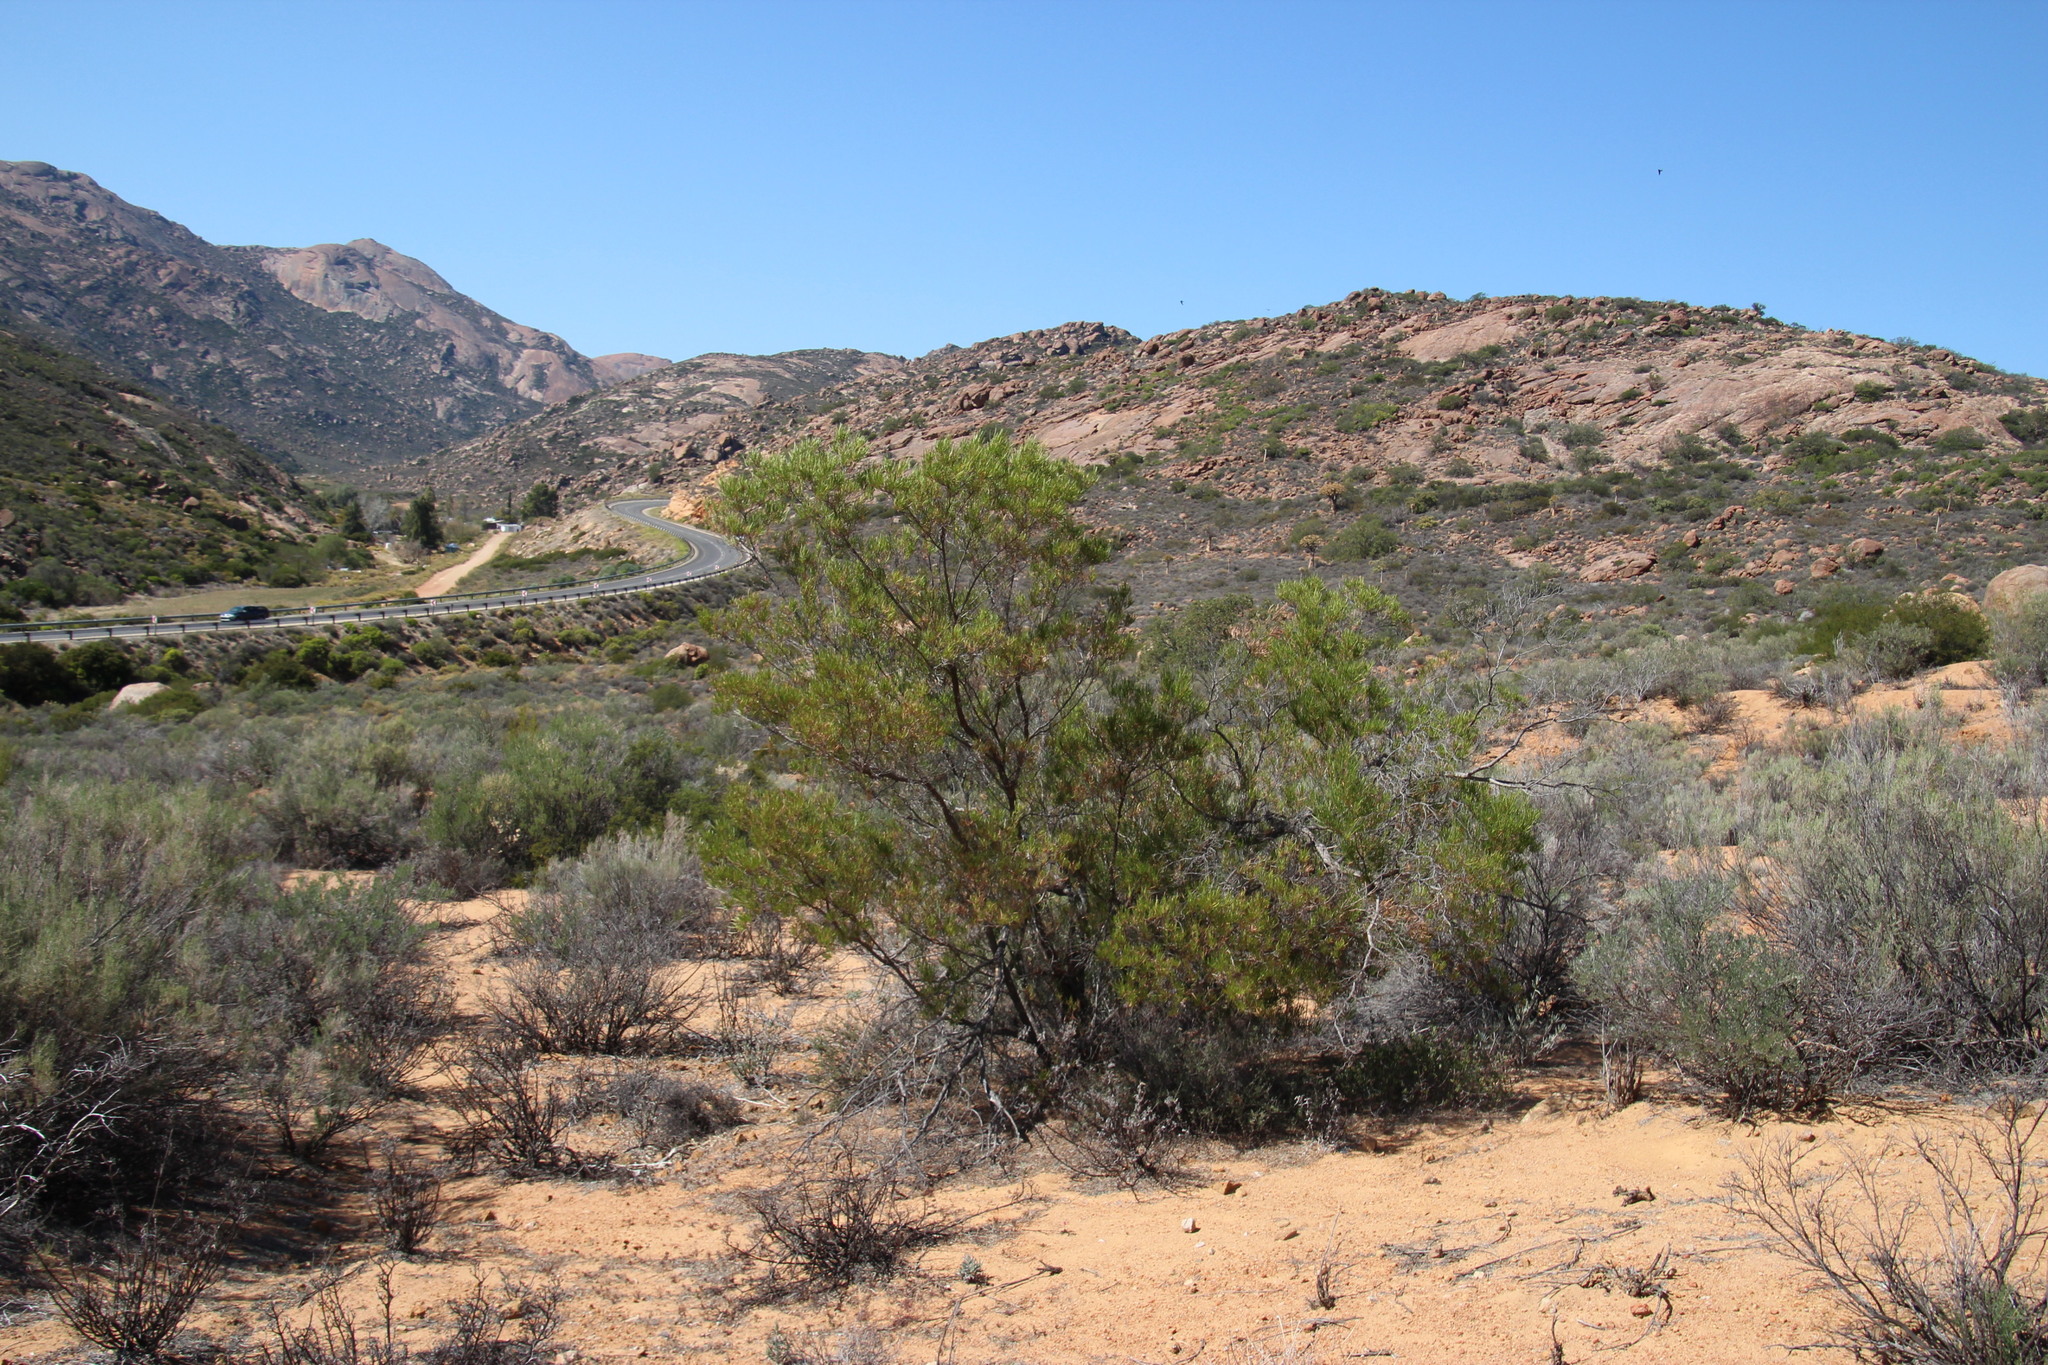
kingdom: Plantae
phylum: Tracheophyta
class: Magnoliopsida
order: Sapindales
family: Sapindaceae
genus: Dodonaea
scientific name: Dodonaea viscosa
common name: Hopbush
